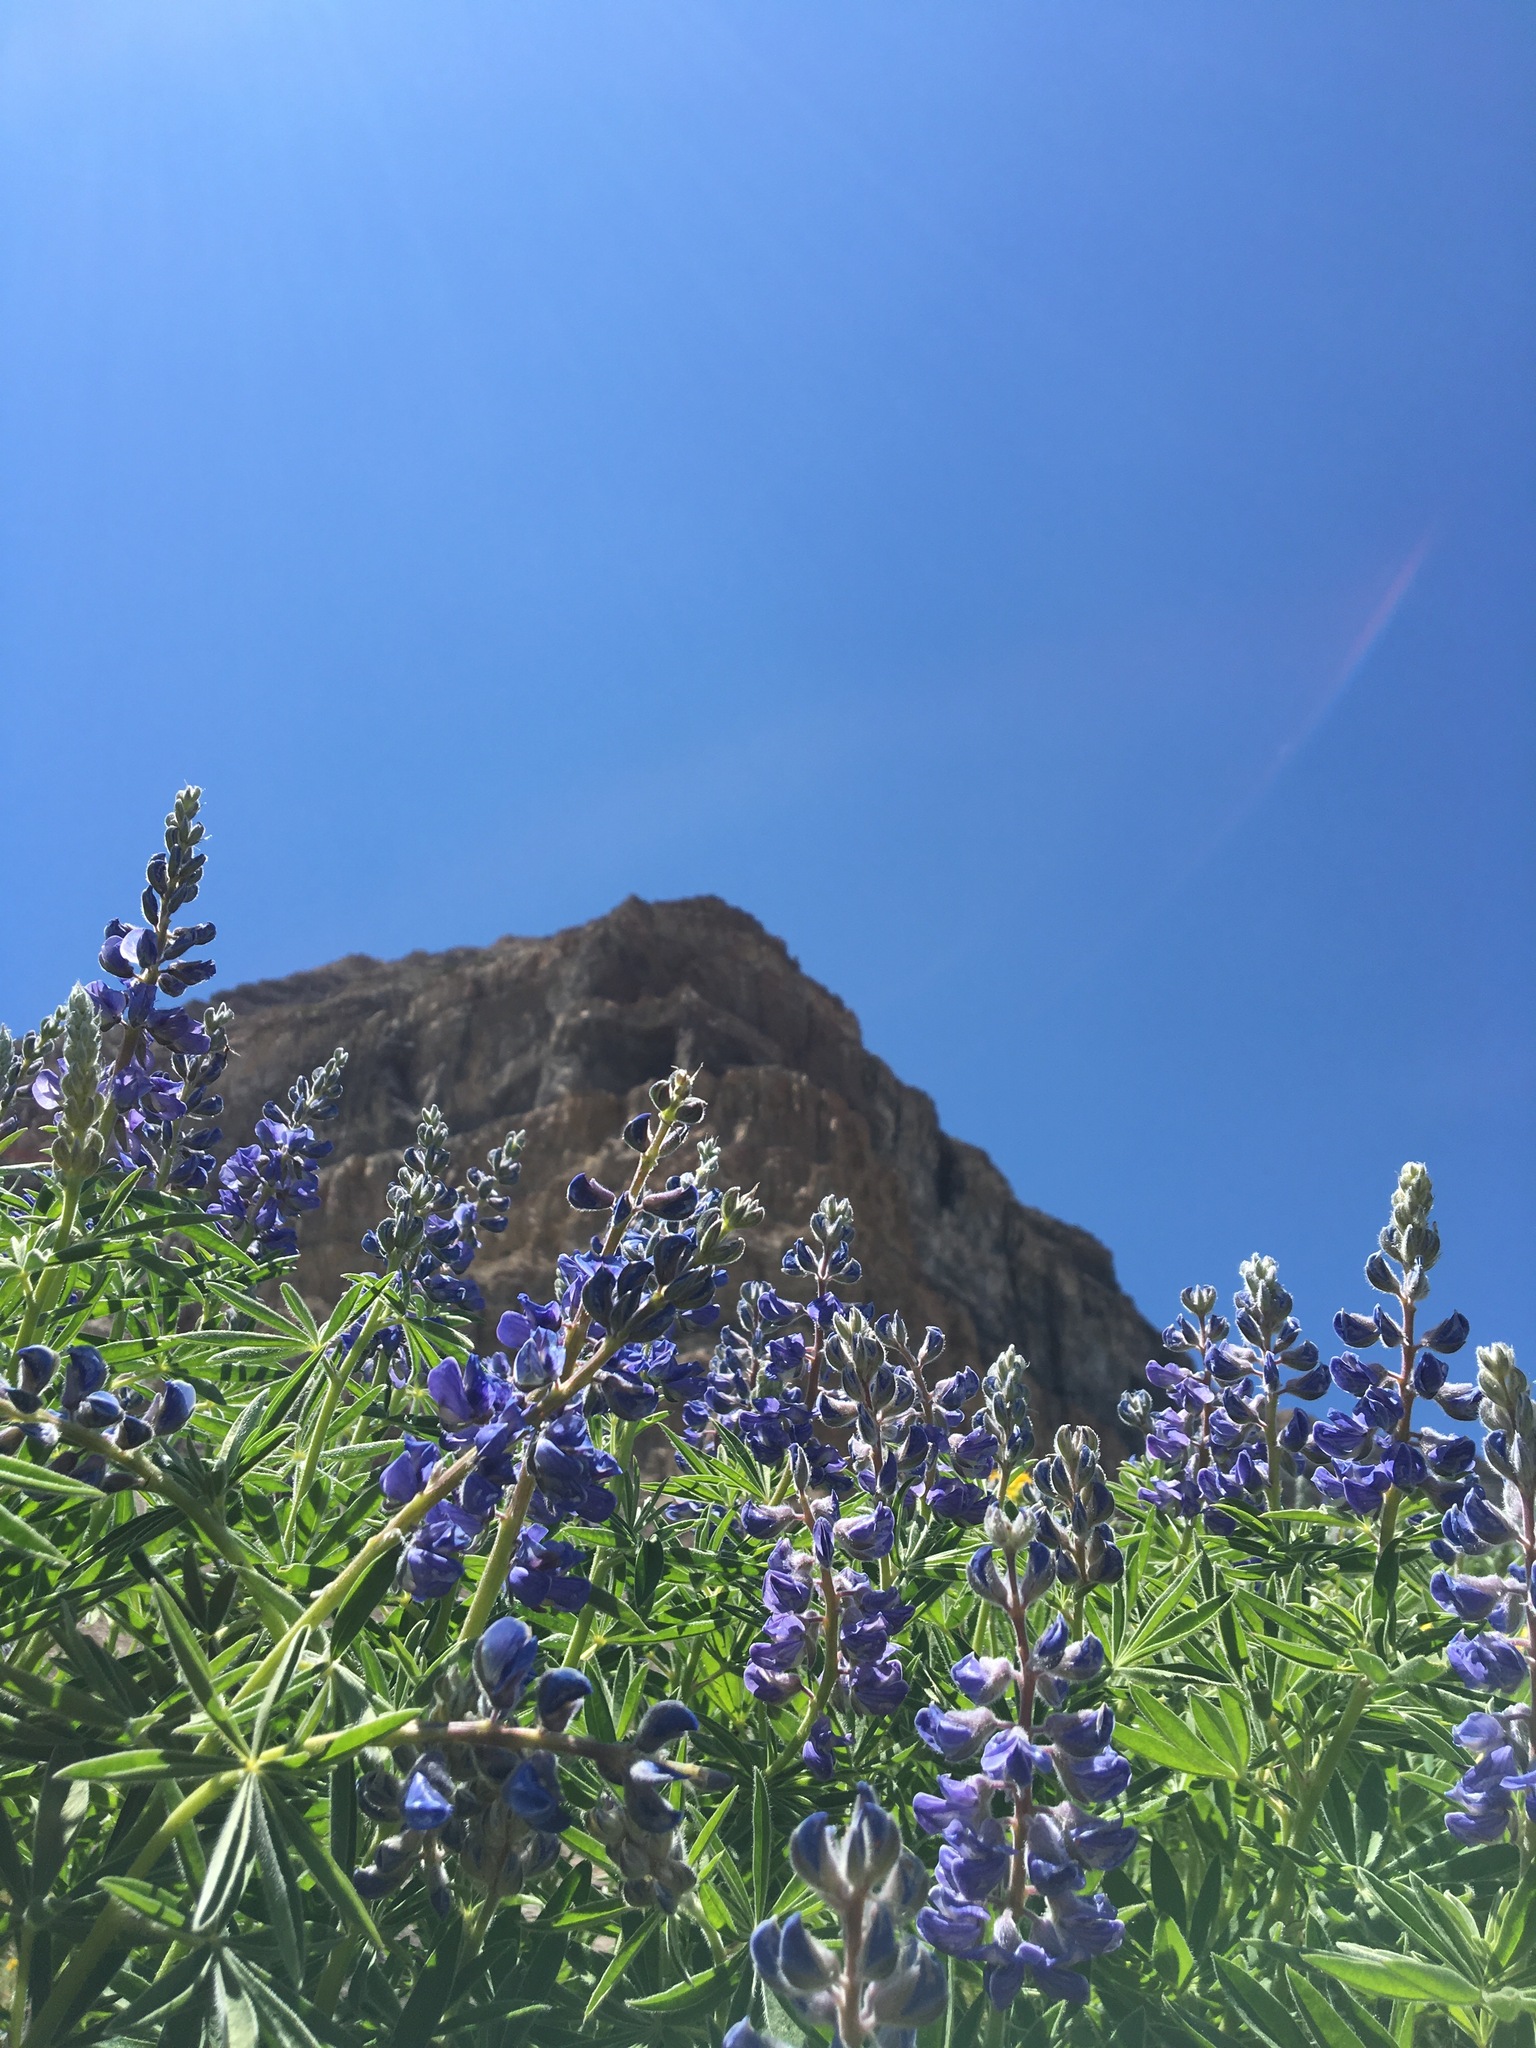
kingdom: Plantae
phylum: Tracheophyta
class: Magnoliopsida
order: Fabales
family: Fabaceae
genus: Lupinus
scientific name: Lupinus argenteus
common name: Silvery lupine
